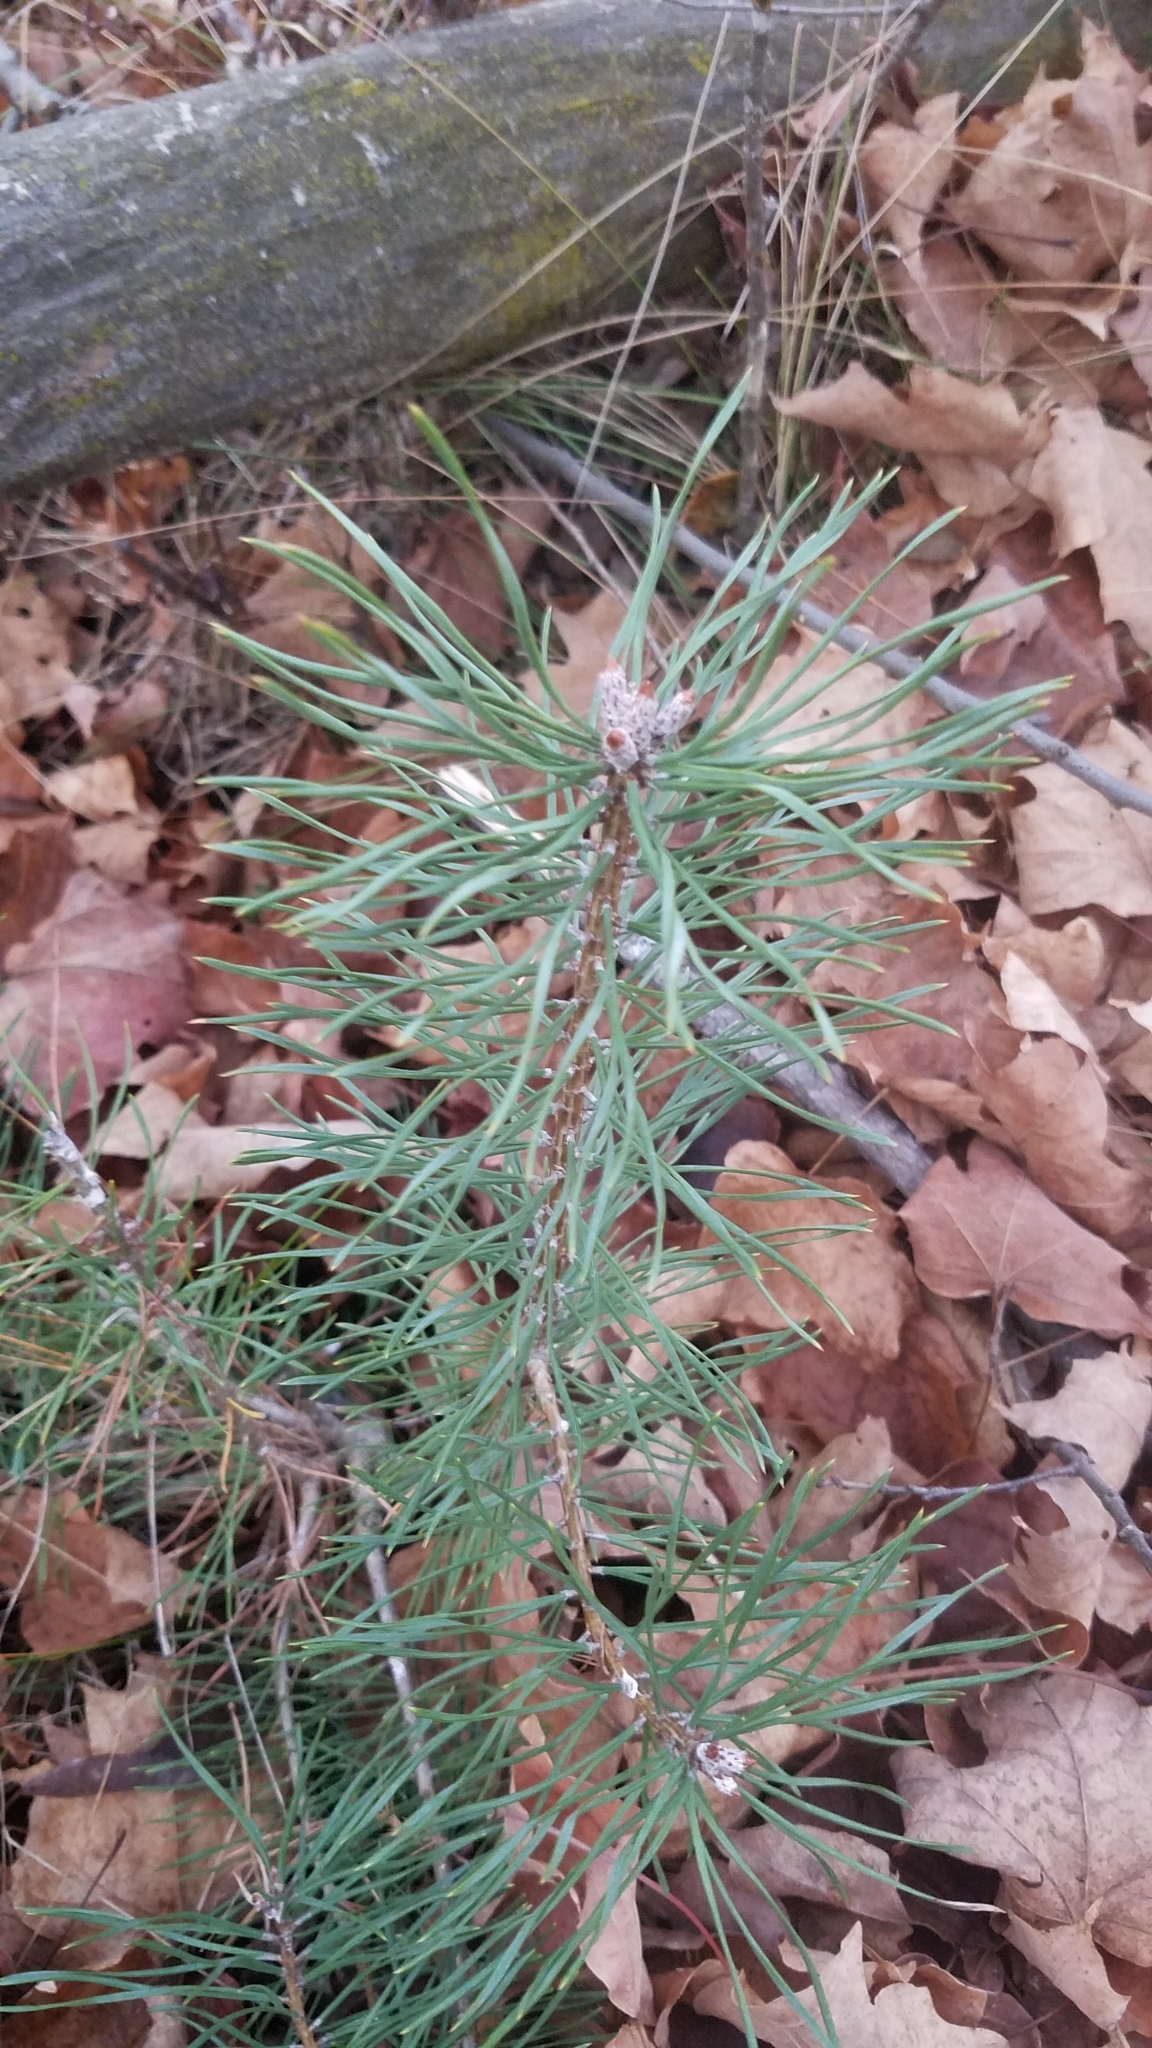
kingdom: Plantae
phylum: Tracheophyta
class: Pinopsida
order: Pinales
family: Pinaceae
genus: Pinus
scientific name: Pinus sylvestris
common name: Scots pine
